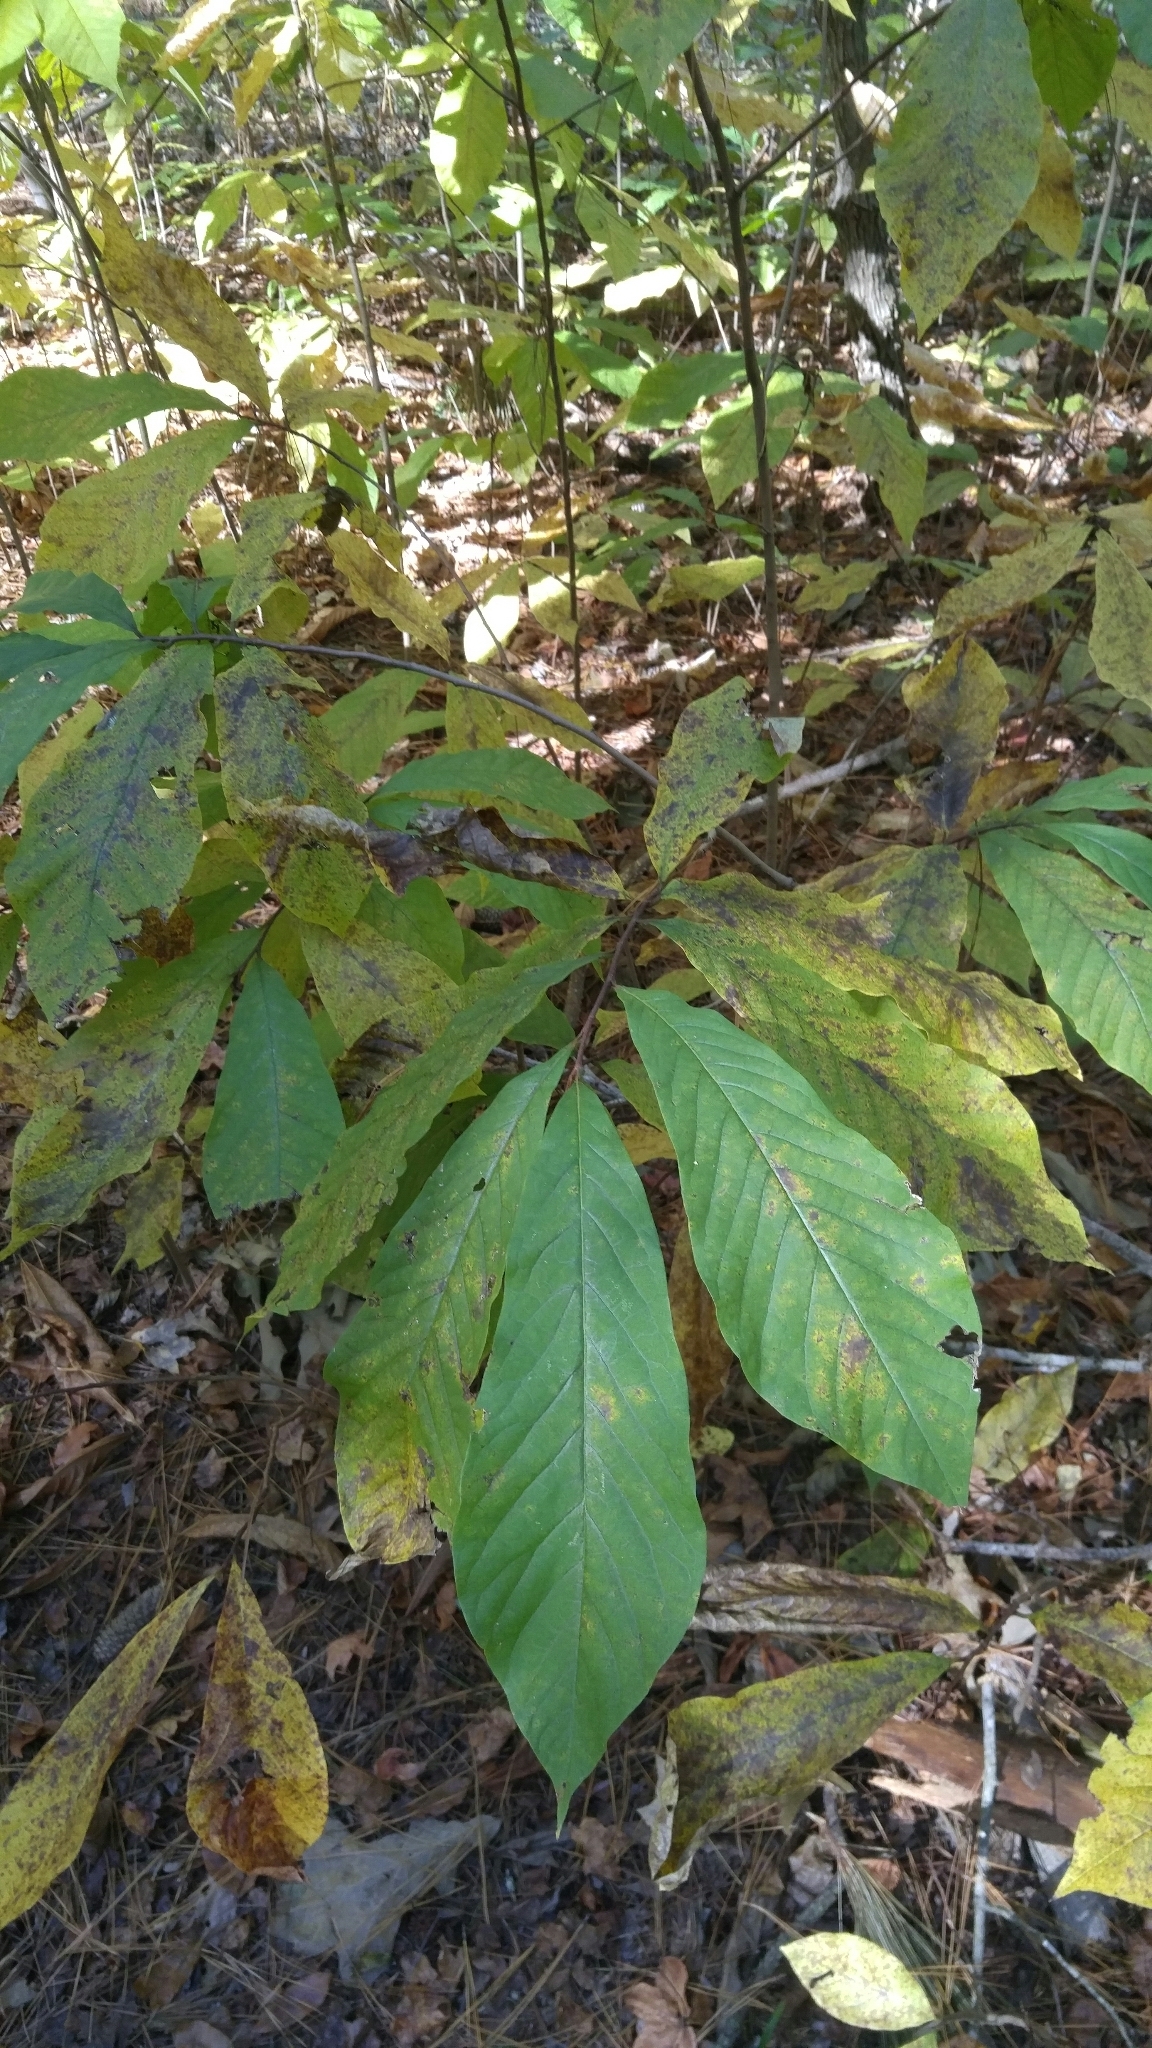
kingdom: Plantae
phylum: Tracheophyta
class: Magnoliopsida
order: Magnoliales
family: Annonaceae
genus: Asimina
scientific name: Asimina triloba
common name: Dog-banana
